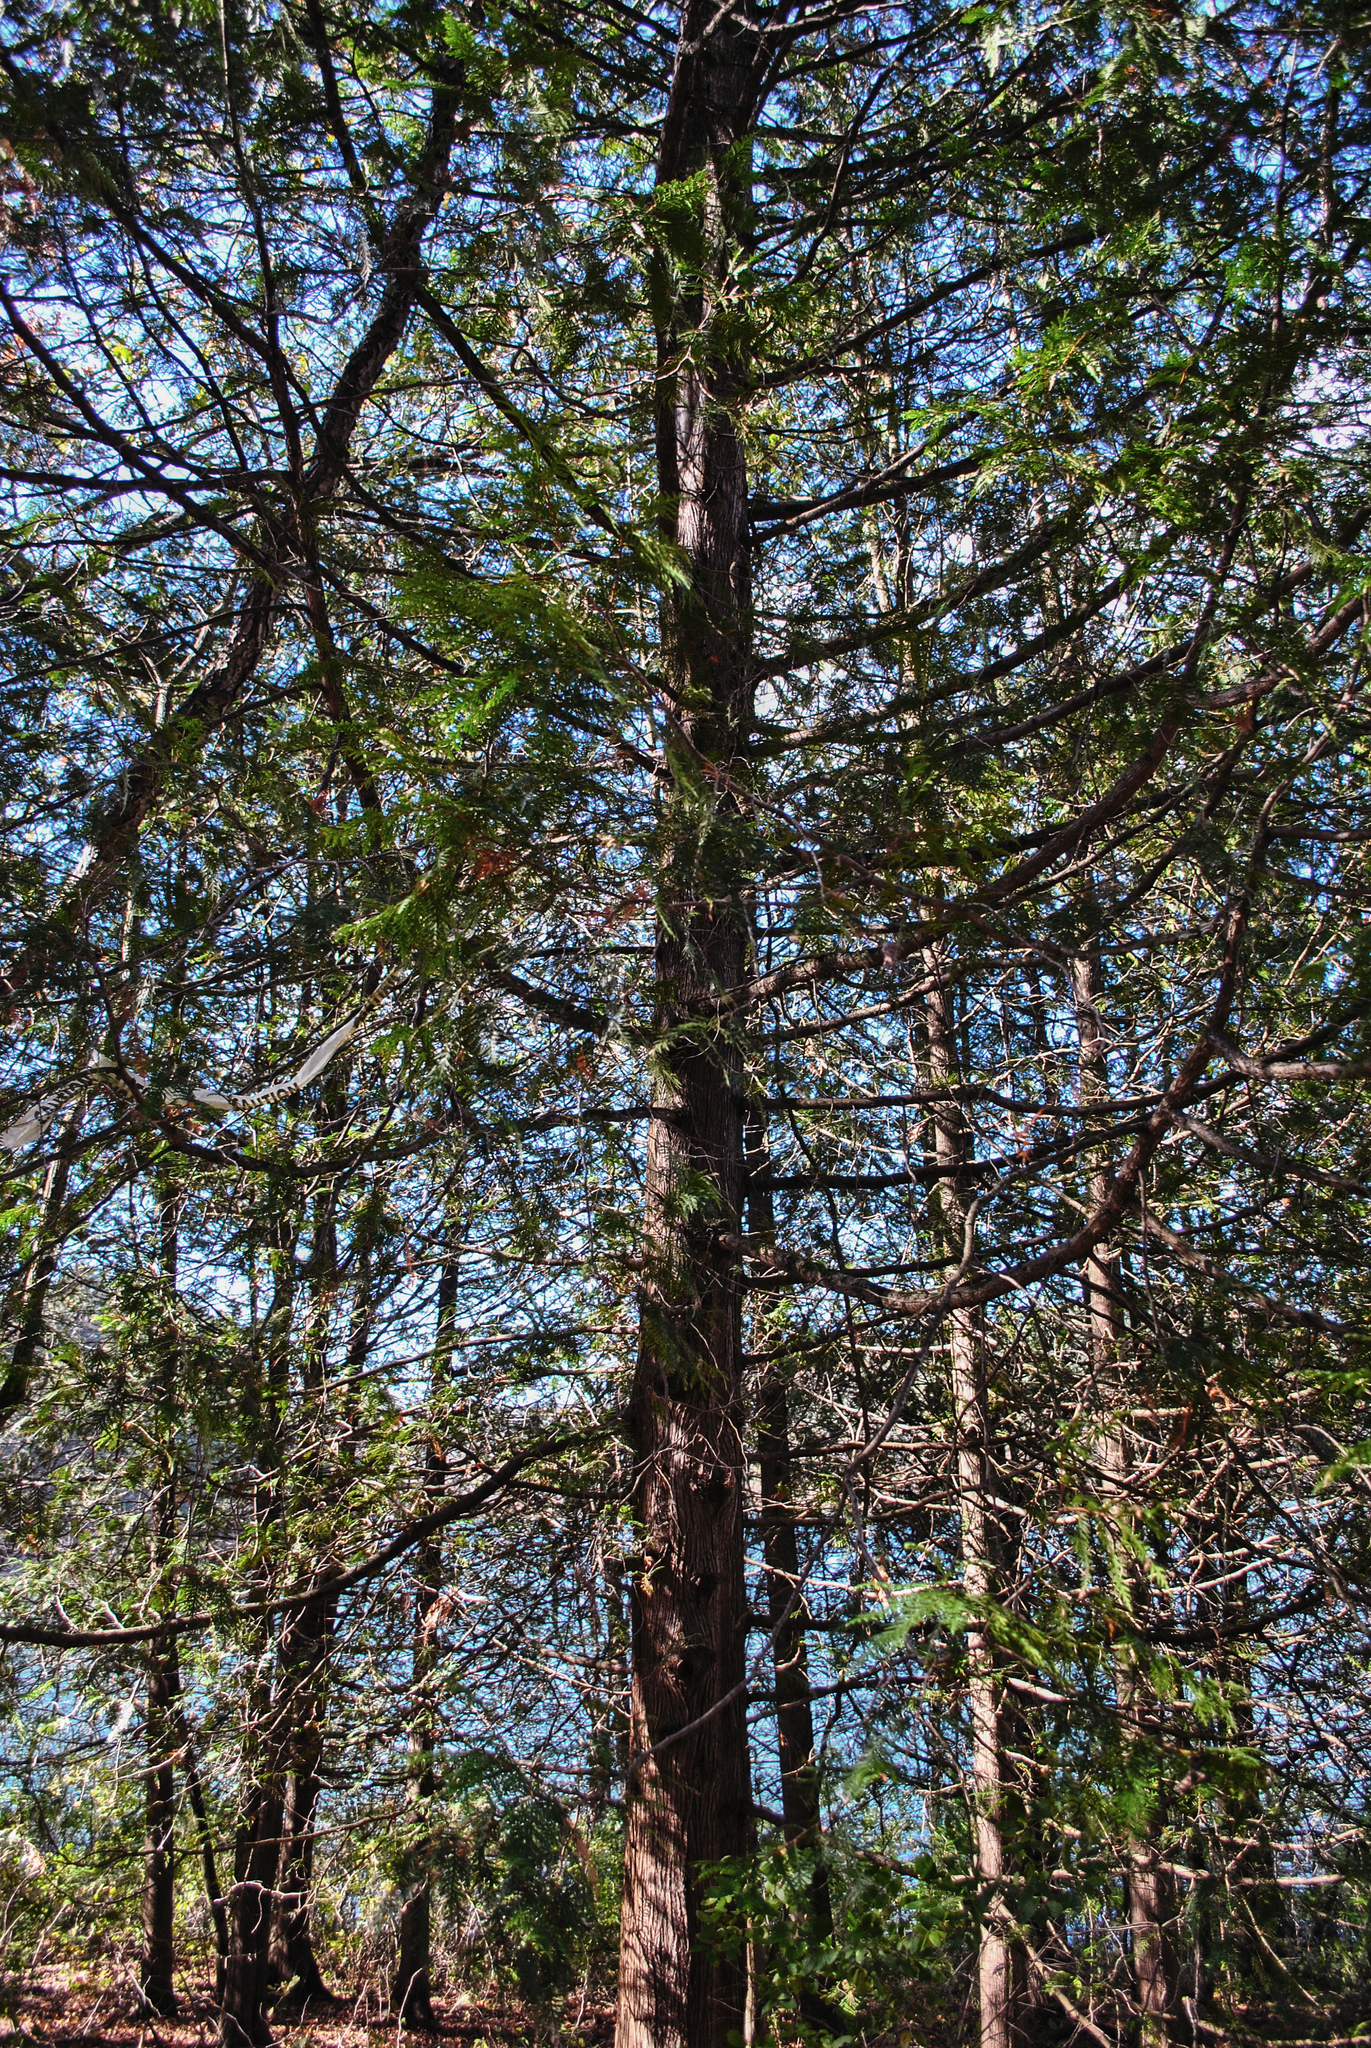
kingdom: Plantae
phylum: Tracheophyta
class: Pinopsida
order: Pinales
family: Cupressaceae
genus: Thuja
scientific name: Thuja occidentalis
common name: Northern white-cedar
